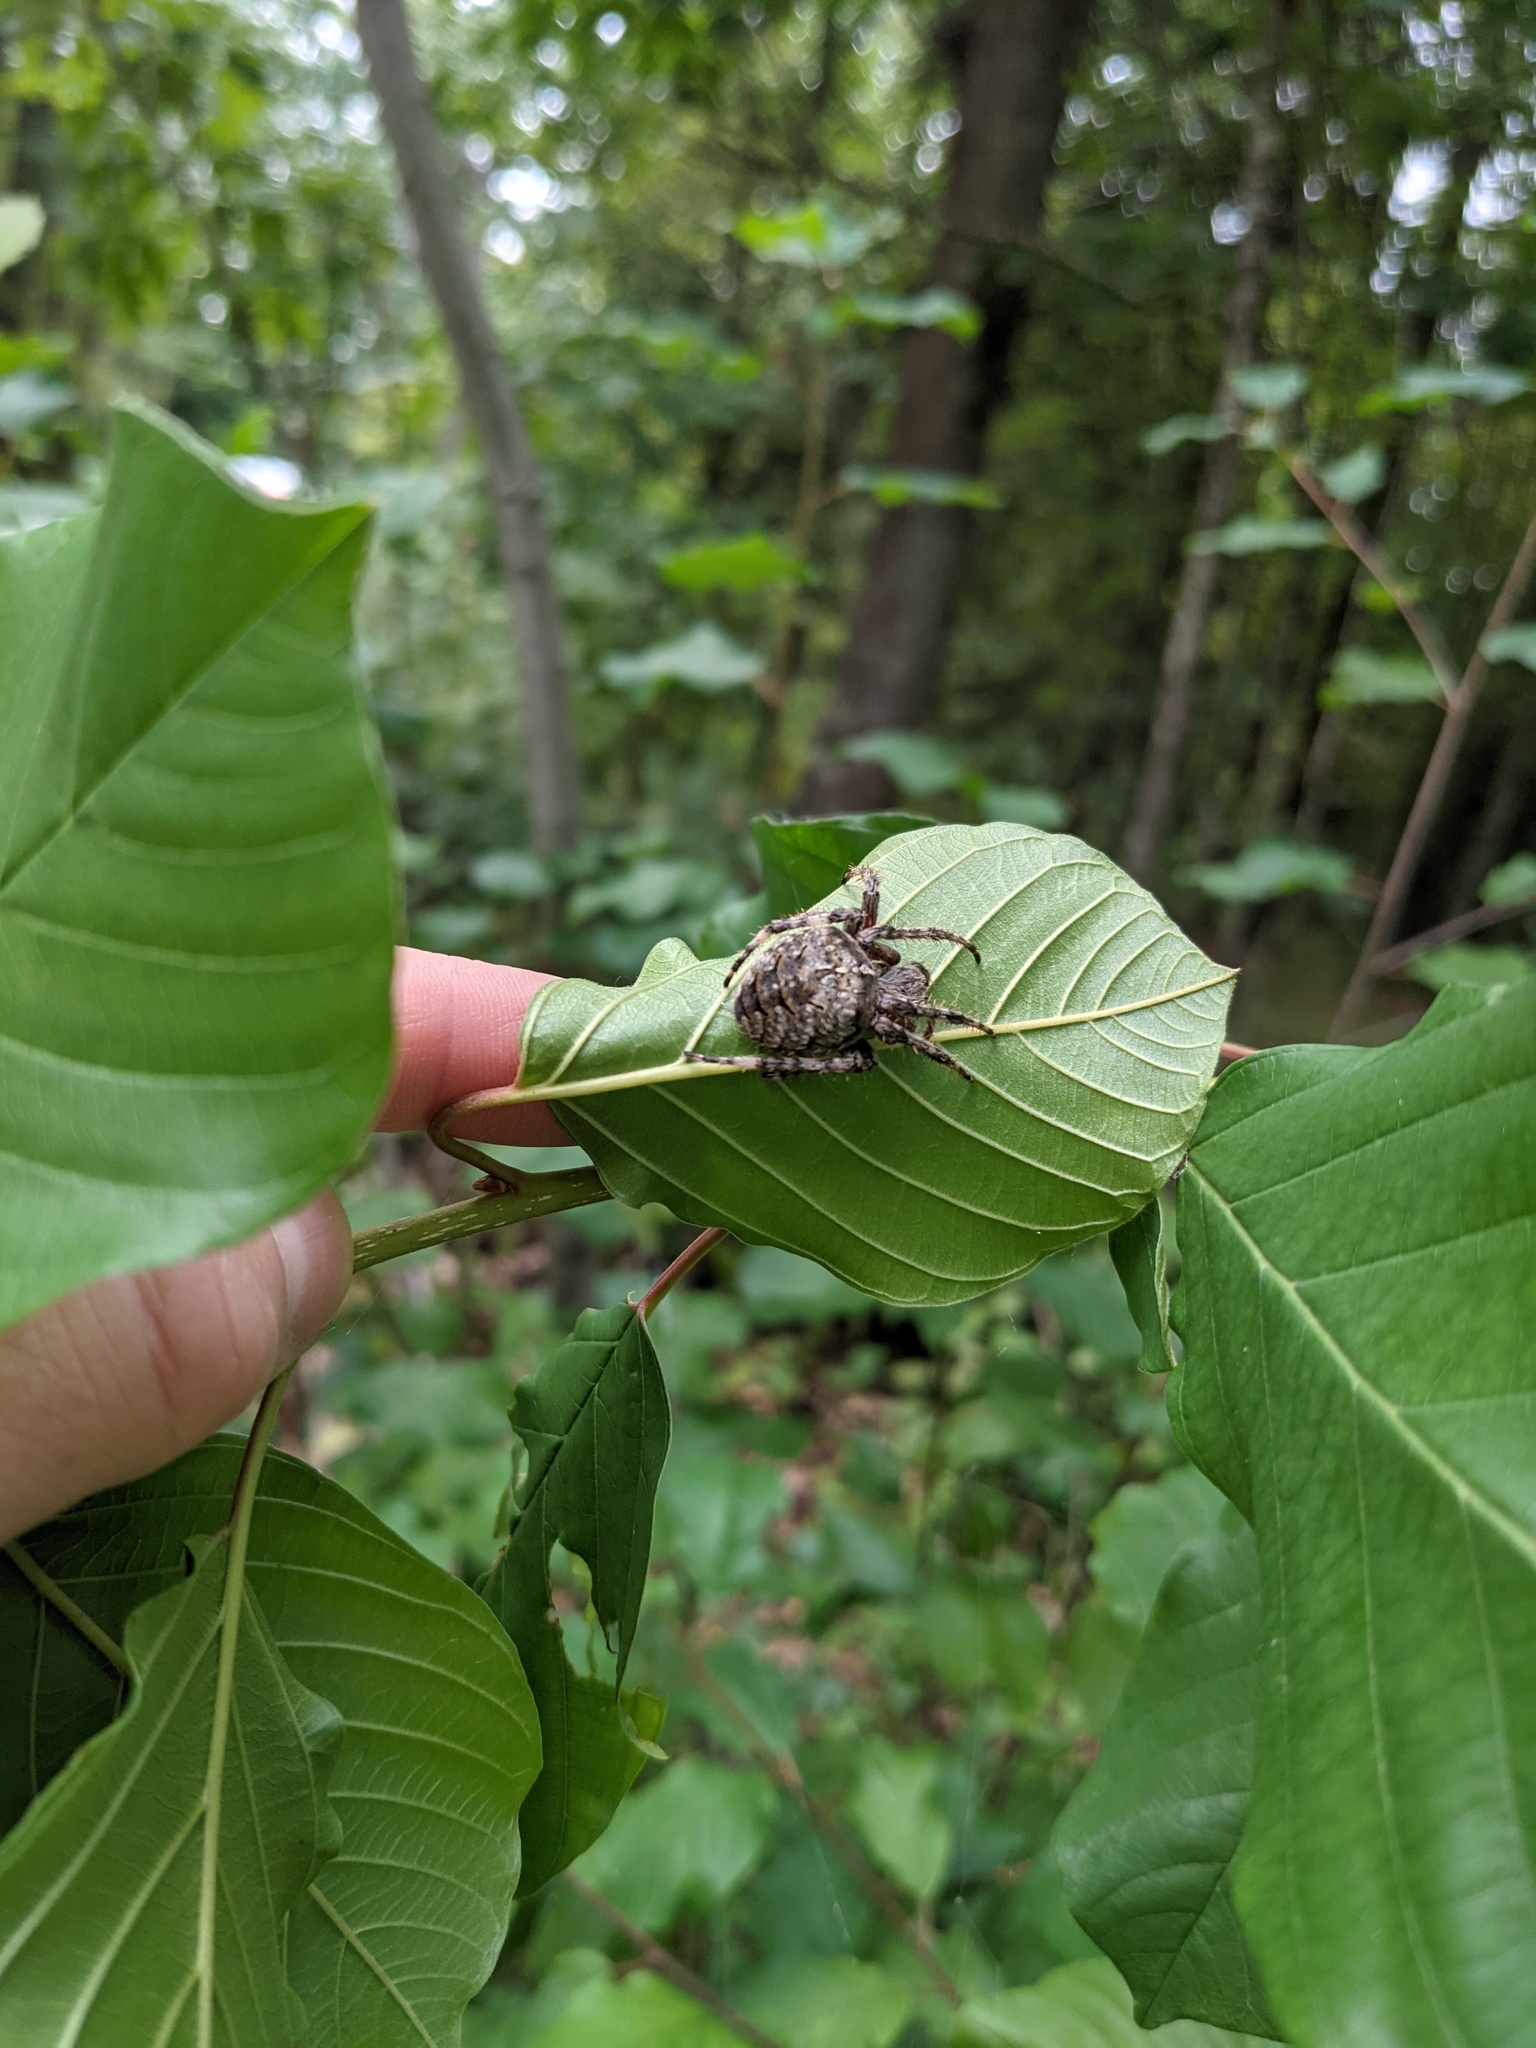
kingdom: Animalia
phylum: Arthropoda
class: Arachnida
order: Araneae
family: Araneidae
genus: Araneus
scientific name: Araneus saevus
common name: Fierce orbweaver
